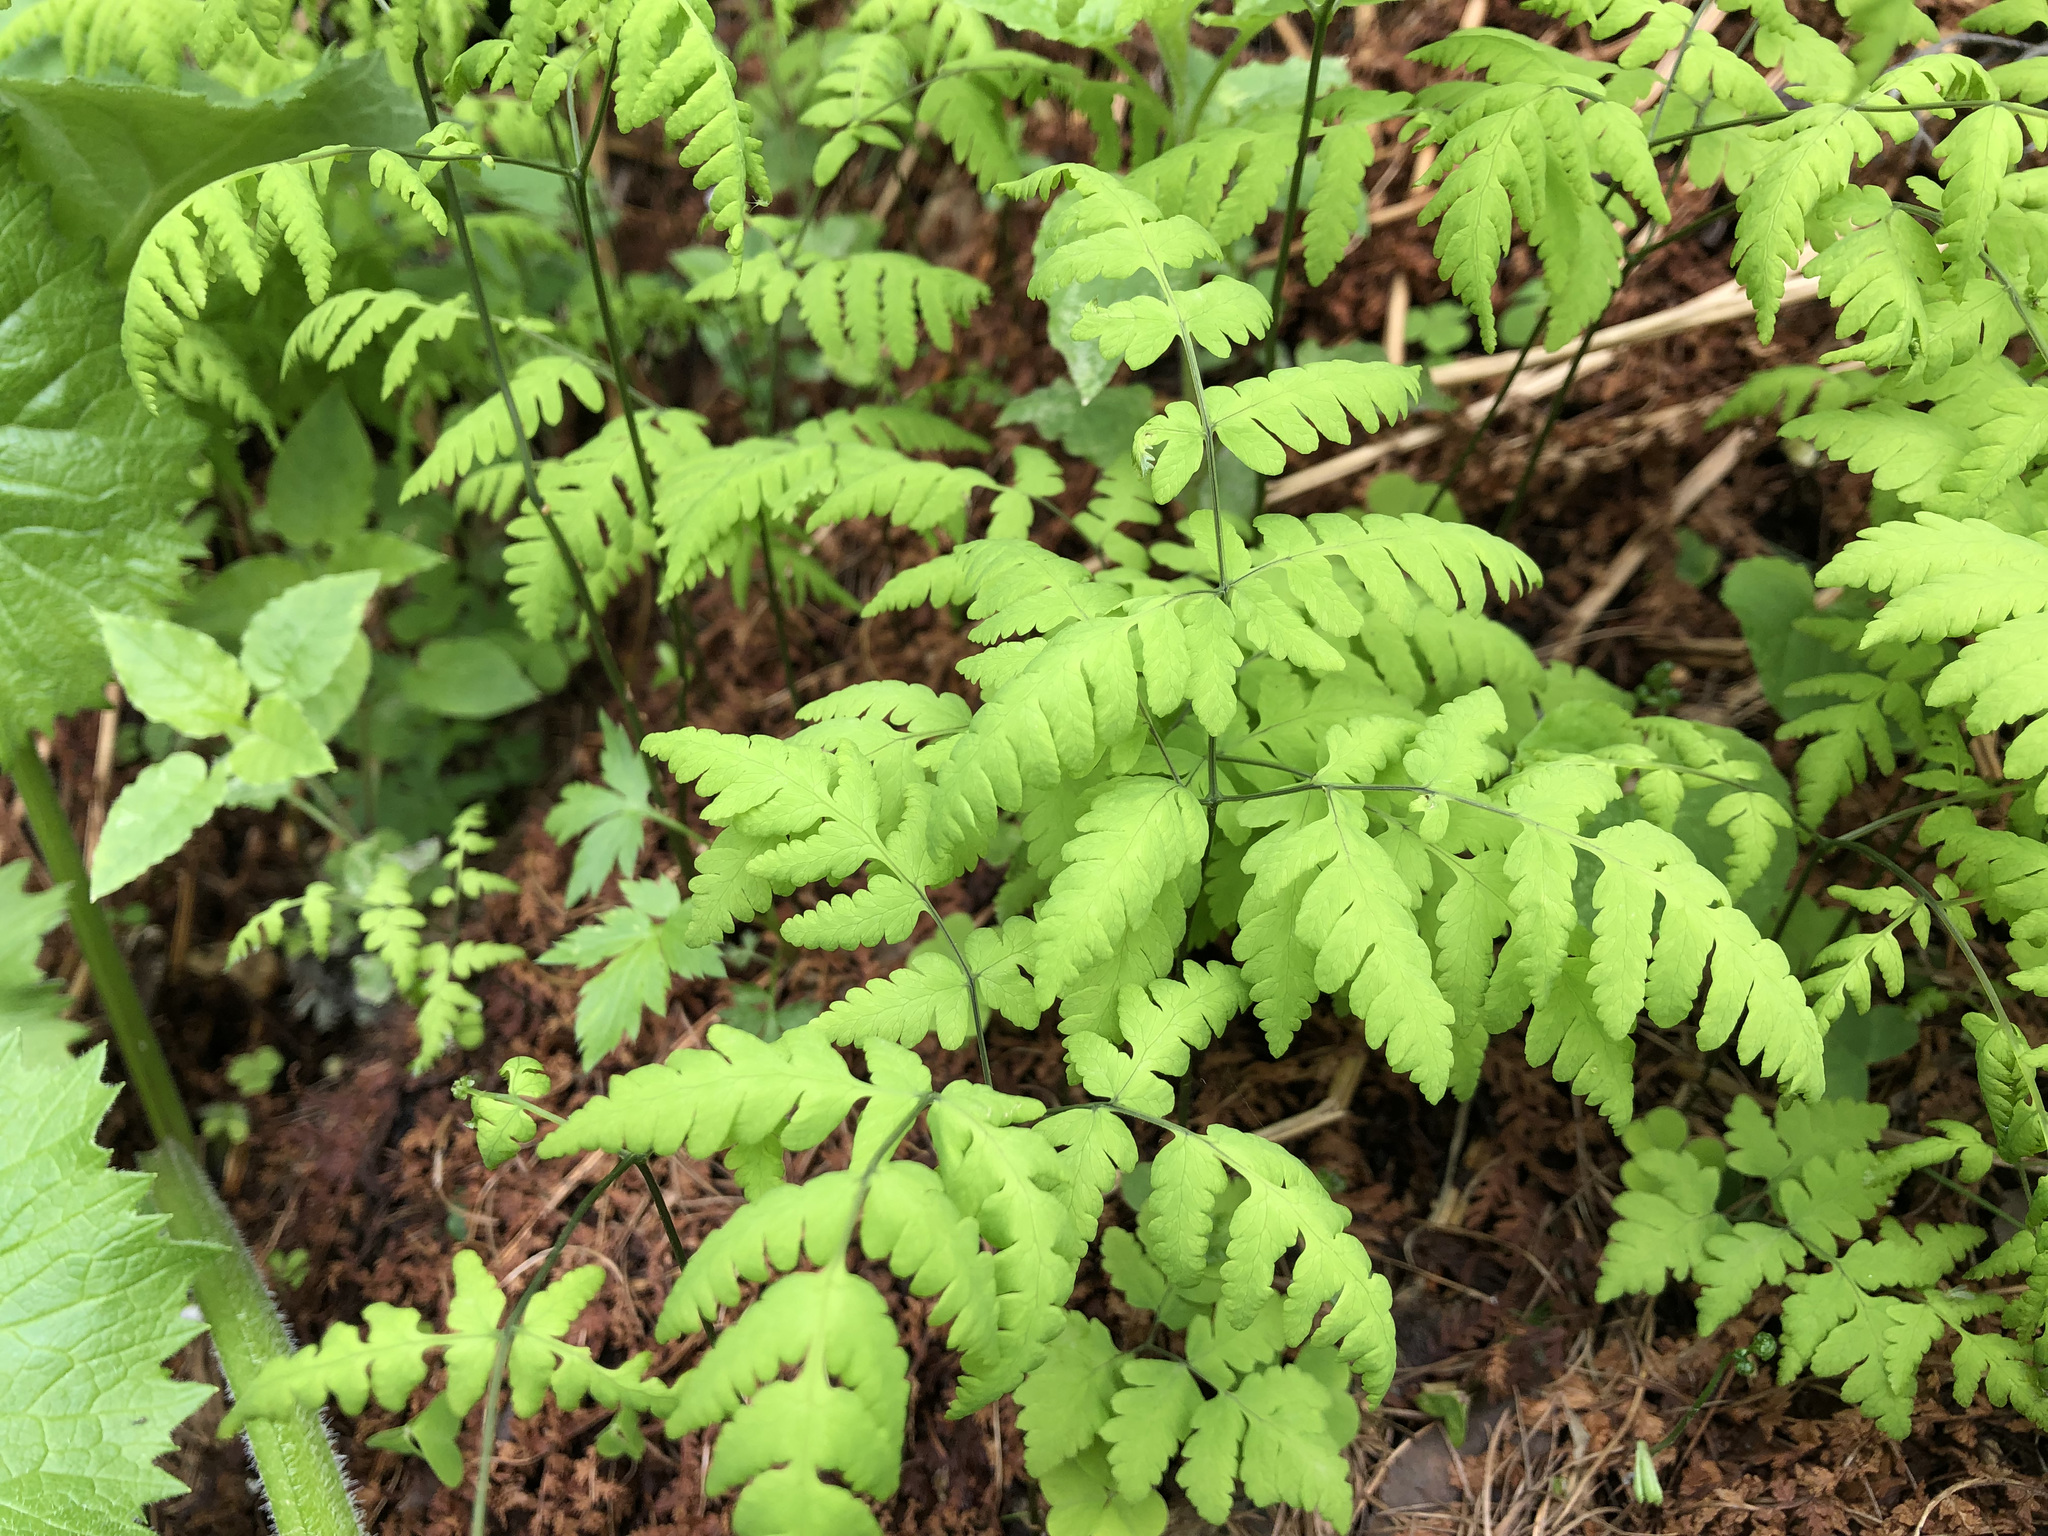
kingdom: Plantae
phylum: Tracheophyta
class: Polypodiopsida
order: Polypodiales
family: Cystopteridaceae
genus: Gymnocarpium
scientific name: Gymnocarpium dryopteris
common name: Oak fern
